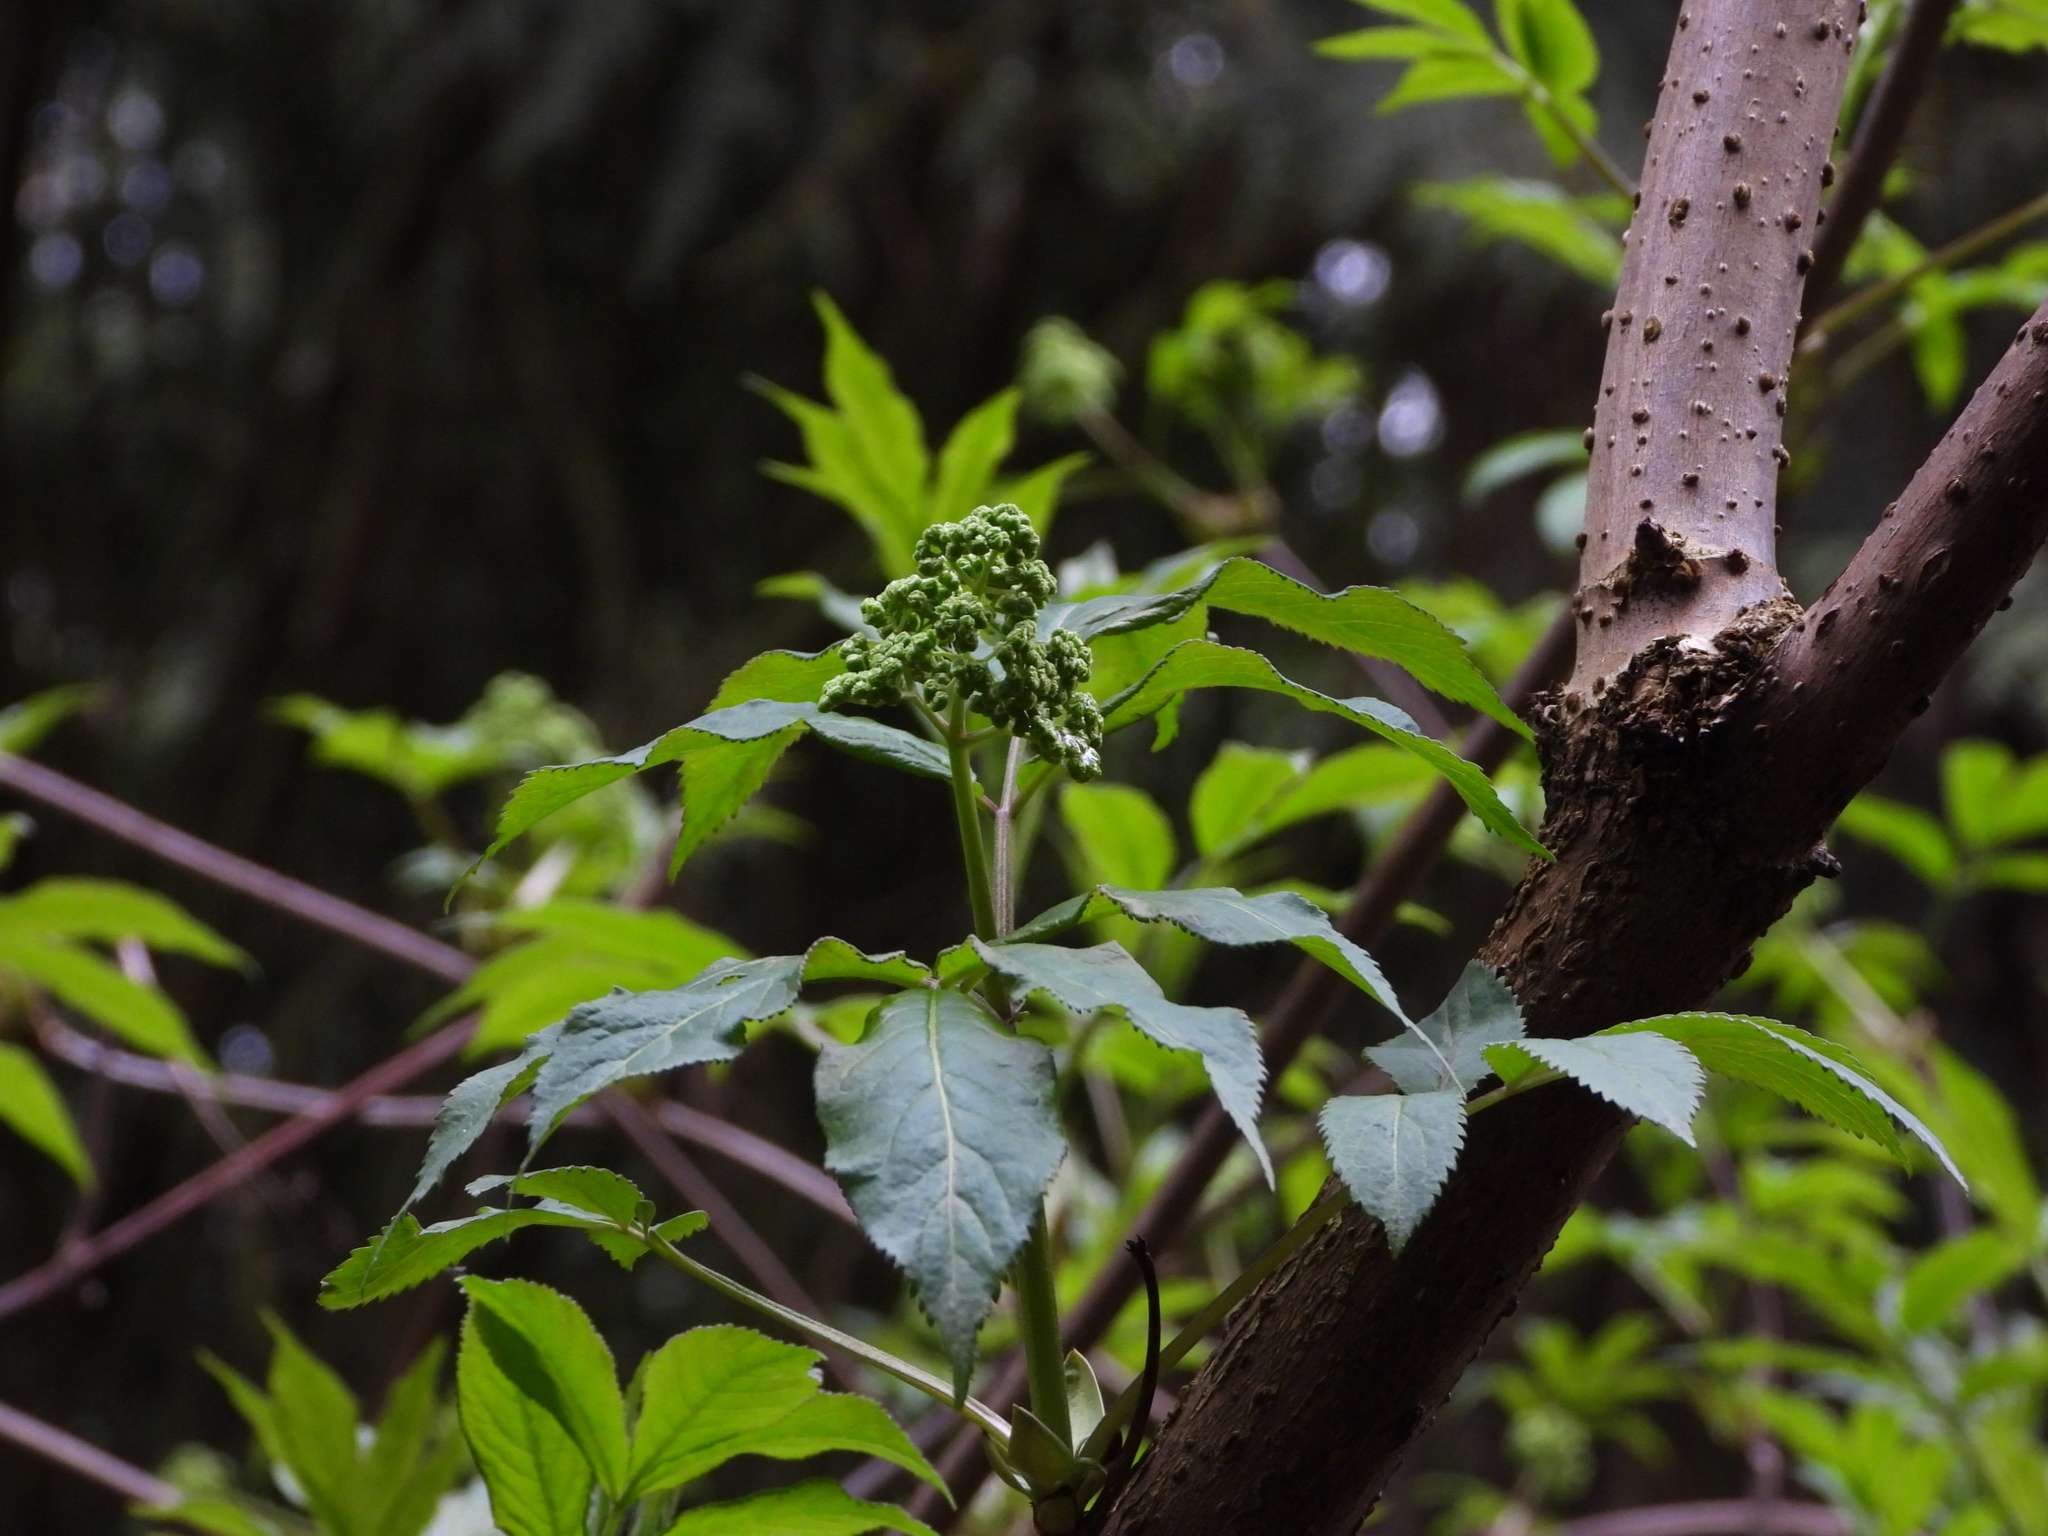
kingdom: Plantae
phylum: Tracheophyta
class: Magnoliopsida
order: Dipsacales
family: Viburnaceae
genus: Sambucus
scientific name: Sambucus racemosa
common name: Red-berried elder
